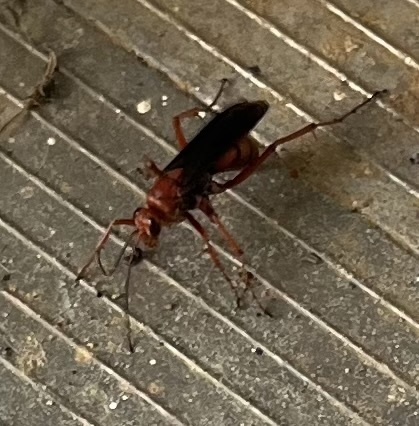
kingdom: Animalia
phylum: Arthropoda
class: Insecta
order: Hymenoptera
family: Pompilidae
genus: Tachypompilus
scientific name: Tachypompilus ferrugineus
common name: Rusty spider wasp
